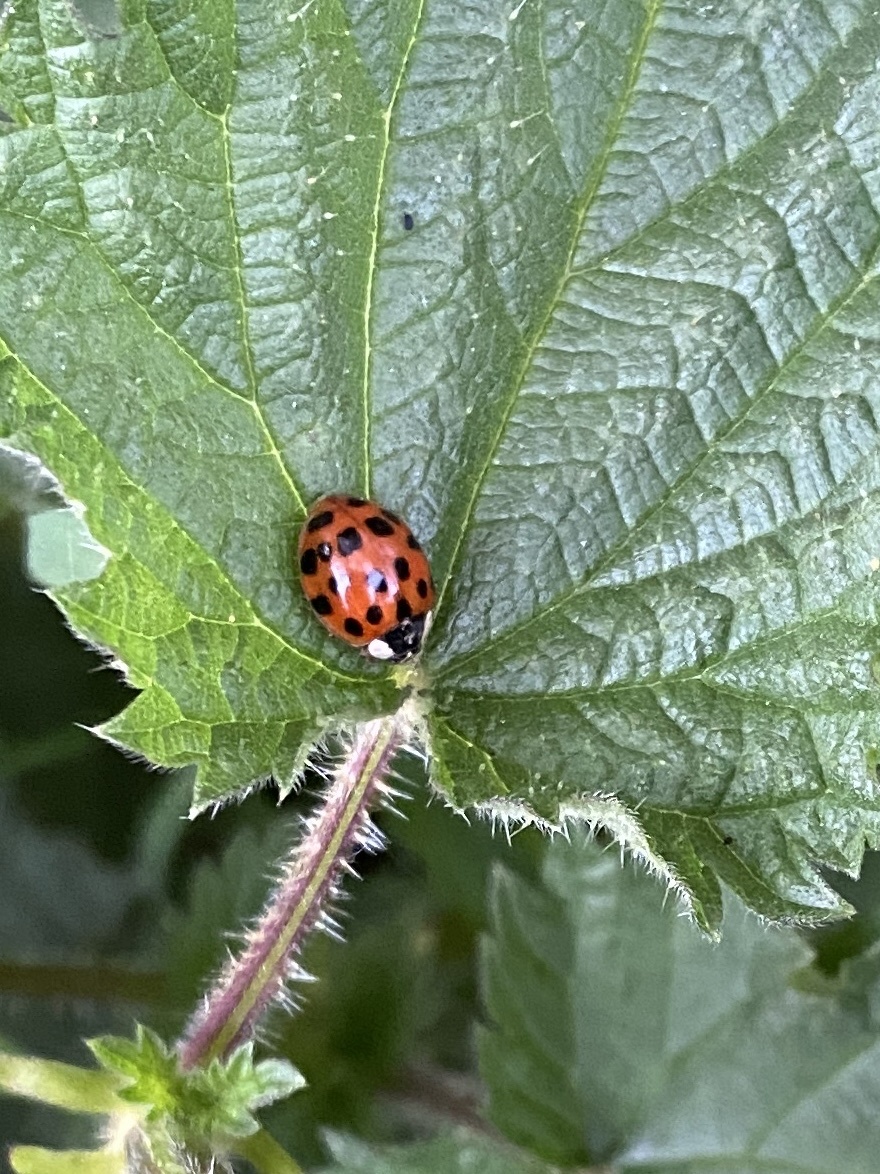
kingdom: Animalia
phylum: Arthropoda
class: Insecta
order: Coleoptera
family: Coccinellidae
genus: Harmonia
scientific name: Harmonia axyridis
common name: Harlequin ladybird
